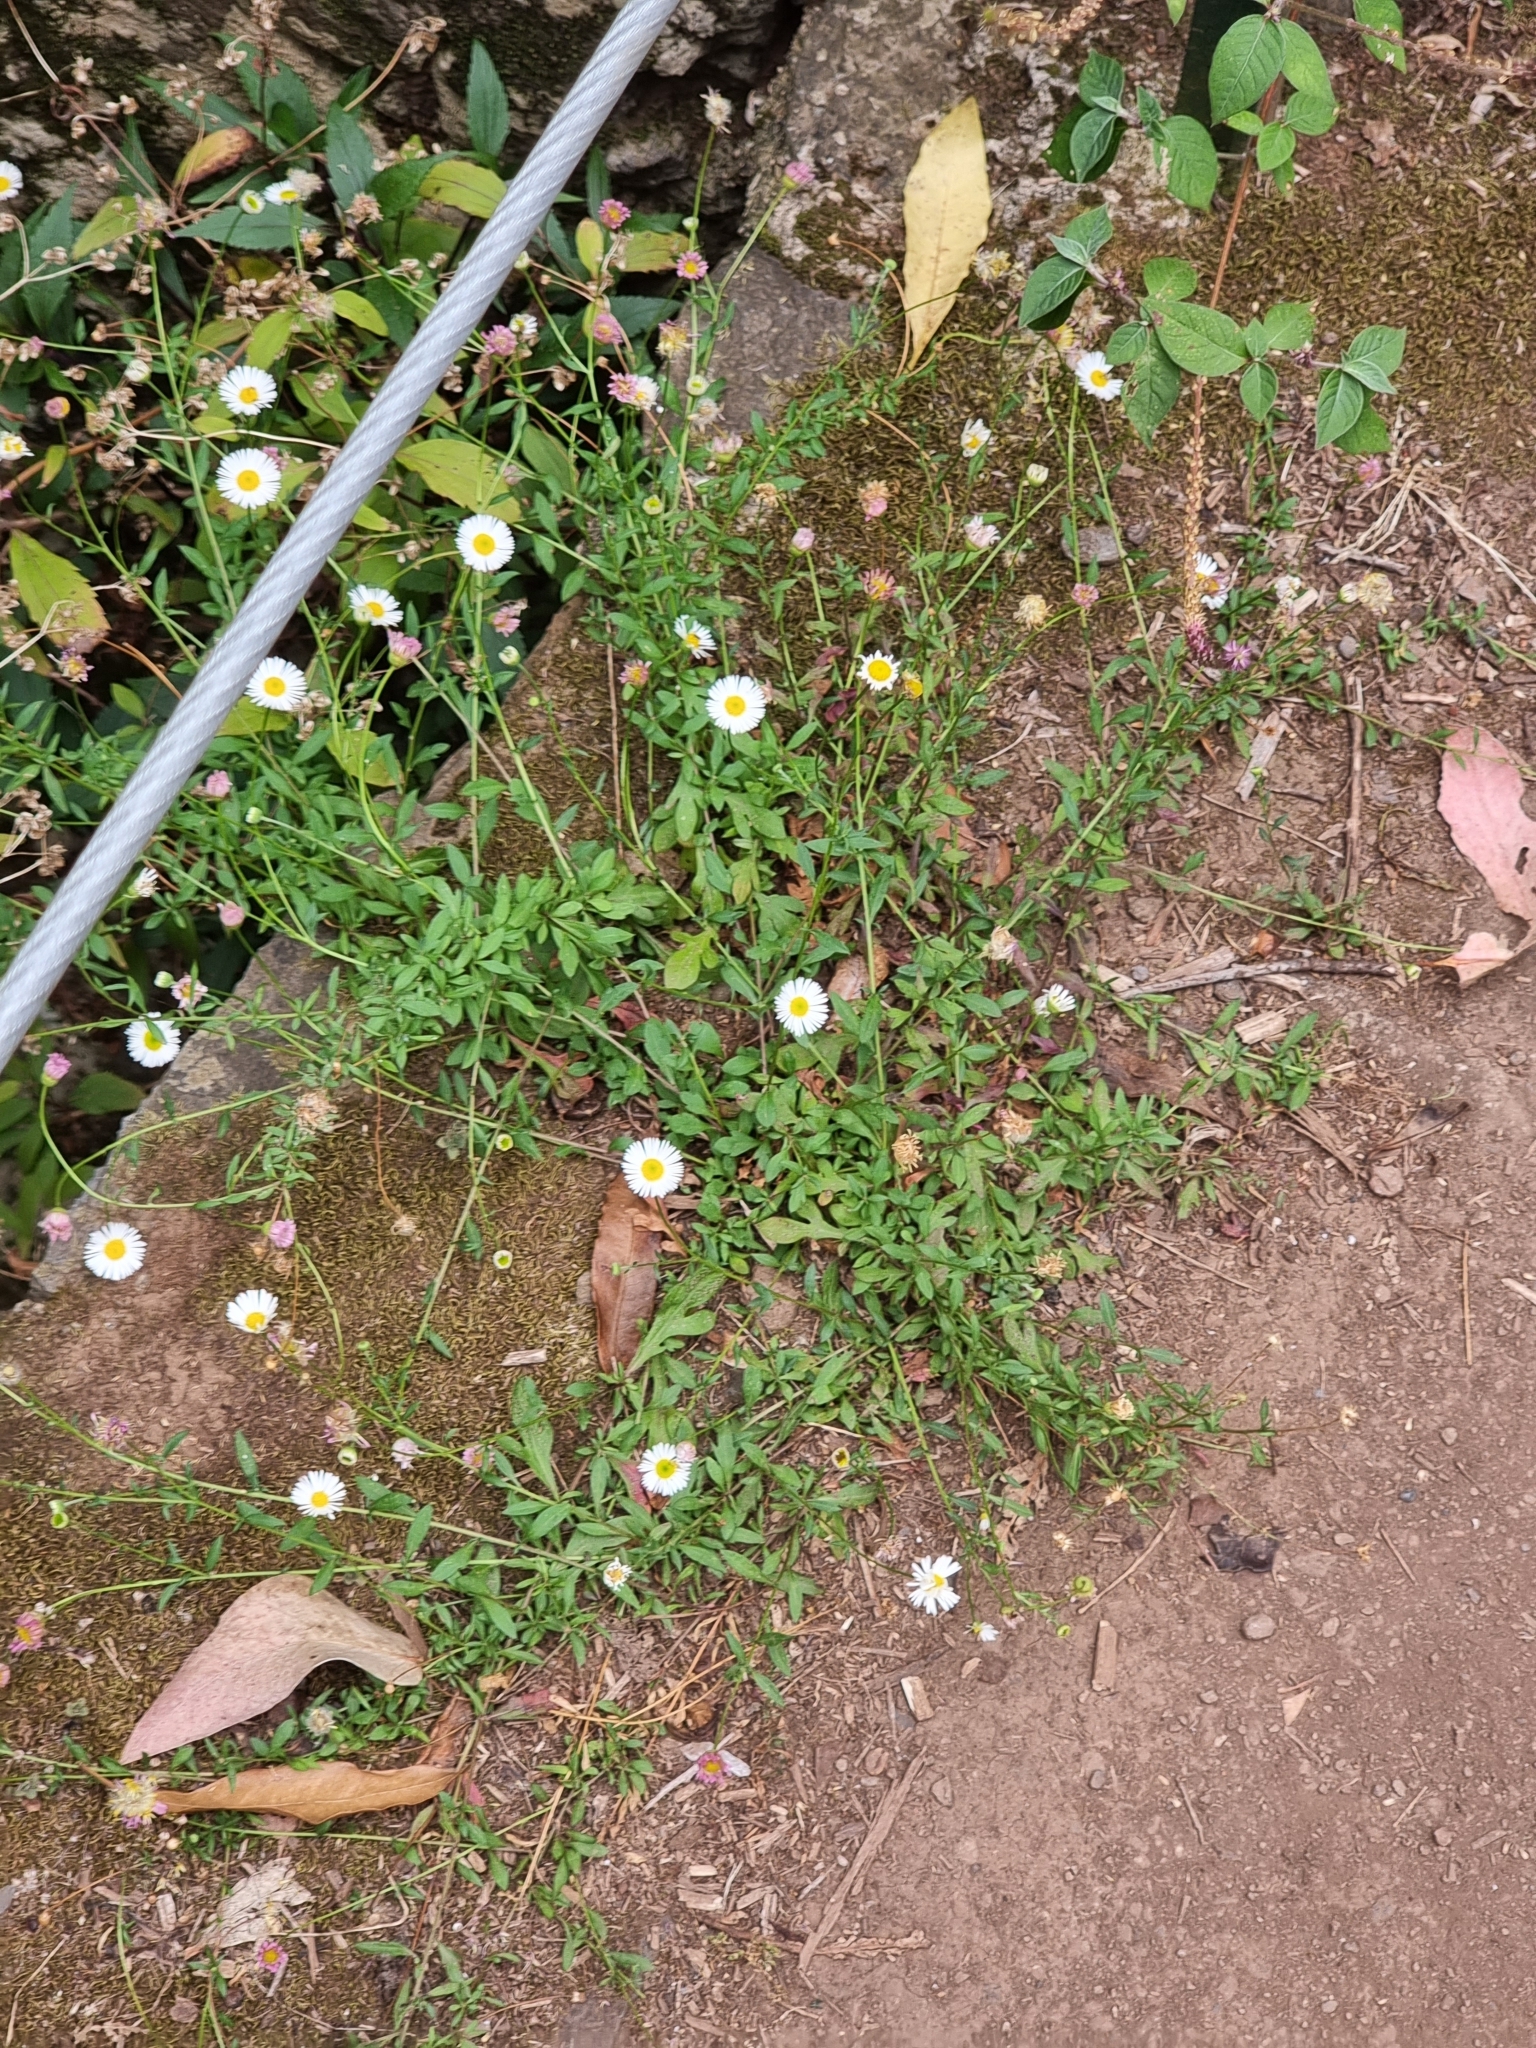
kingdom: Plantae
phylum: Tracheophyta
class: Magnoliopsida
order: Asterales
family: Asteraceae
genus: Erigeron
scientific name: Erigeron karvinskianus
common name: Mexican fleabane
